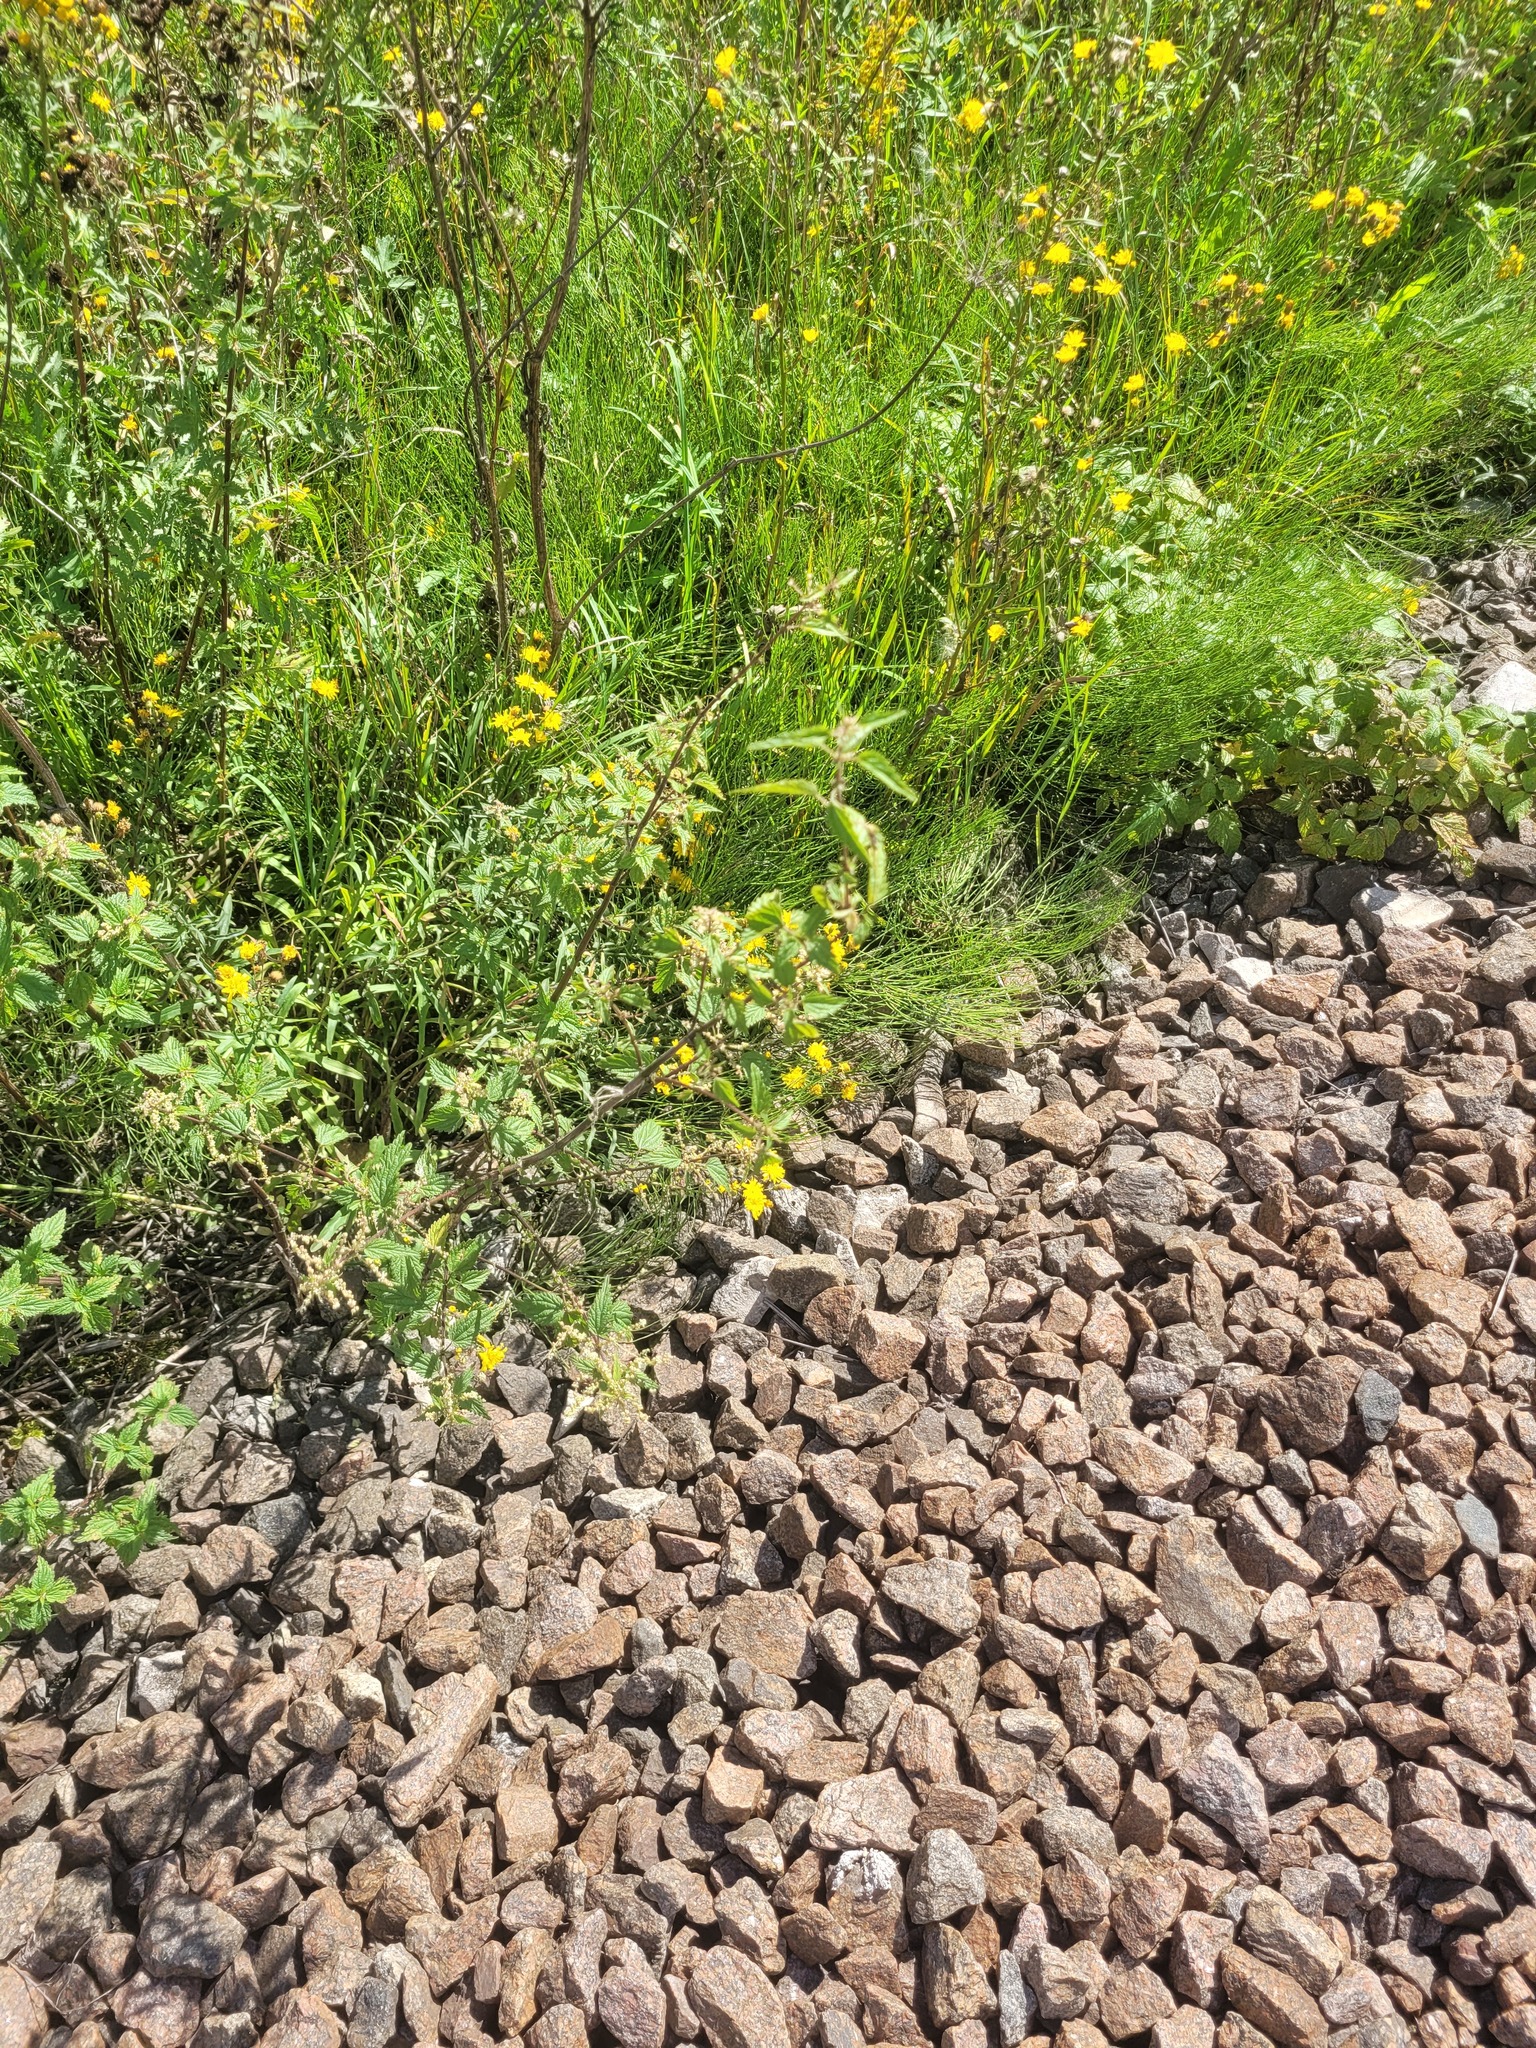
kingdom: Plantae
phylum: Tracheophyta
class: Magnoliopsida
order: Rosales
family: Urticaceae
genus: Urtica
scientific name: Urtica dioica
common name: Common nettle
